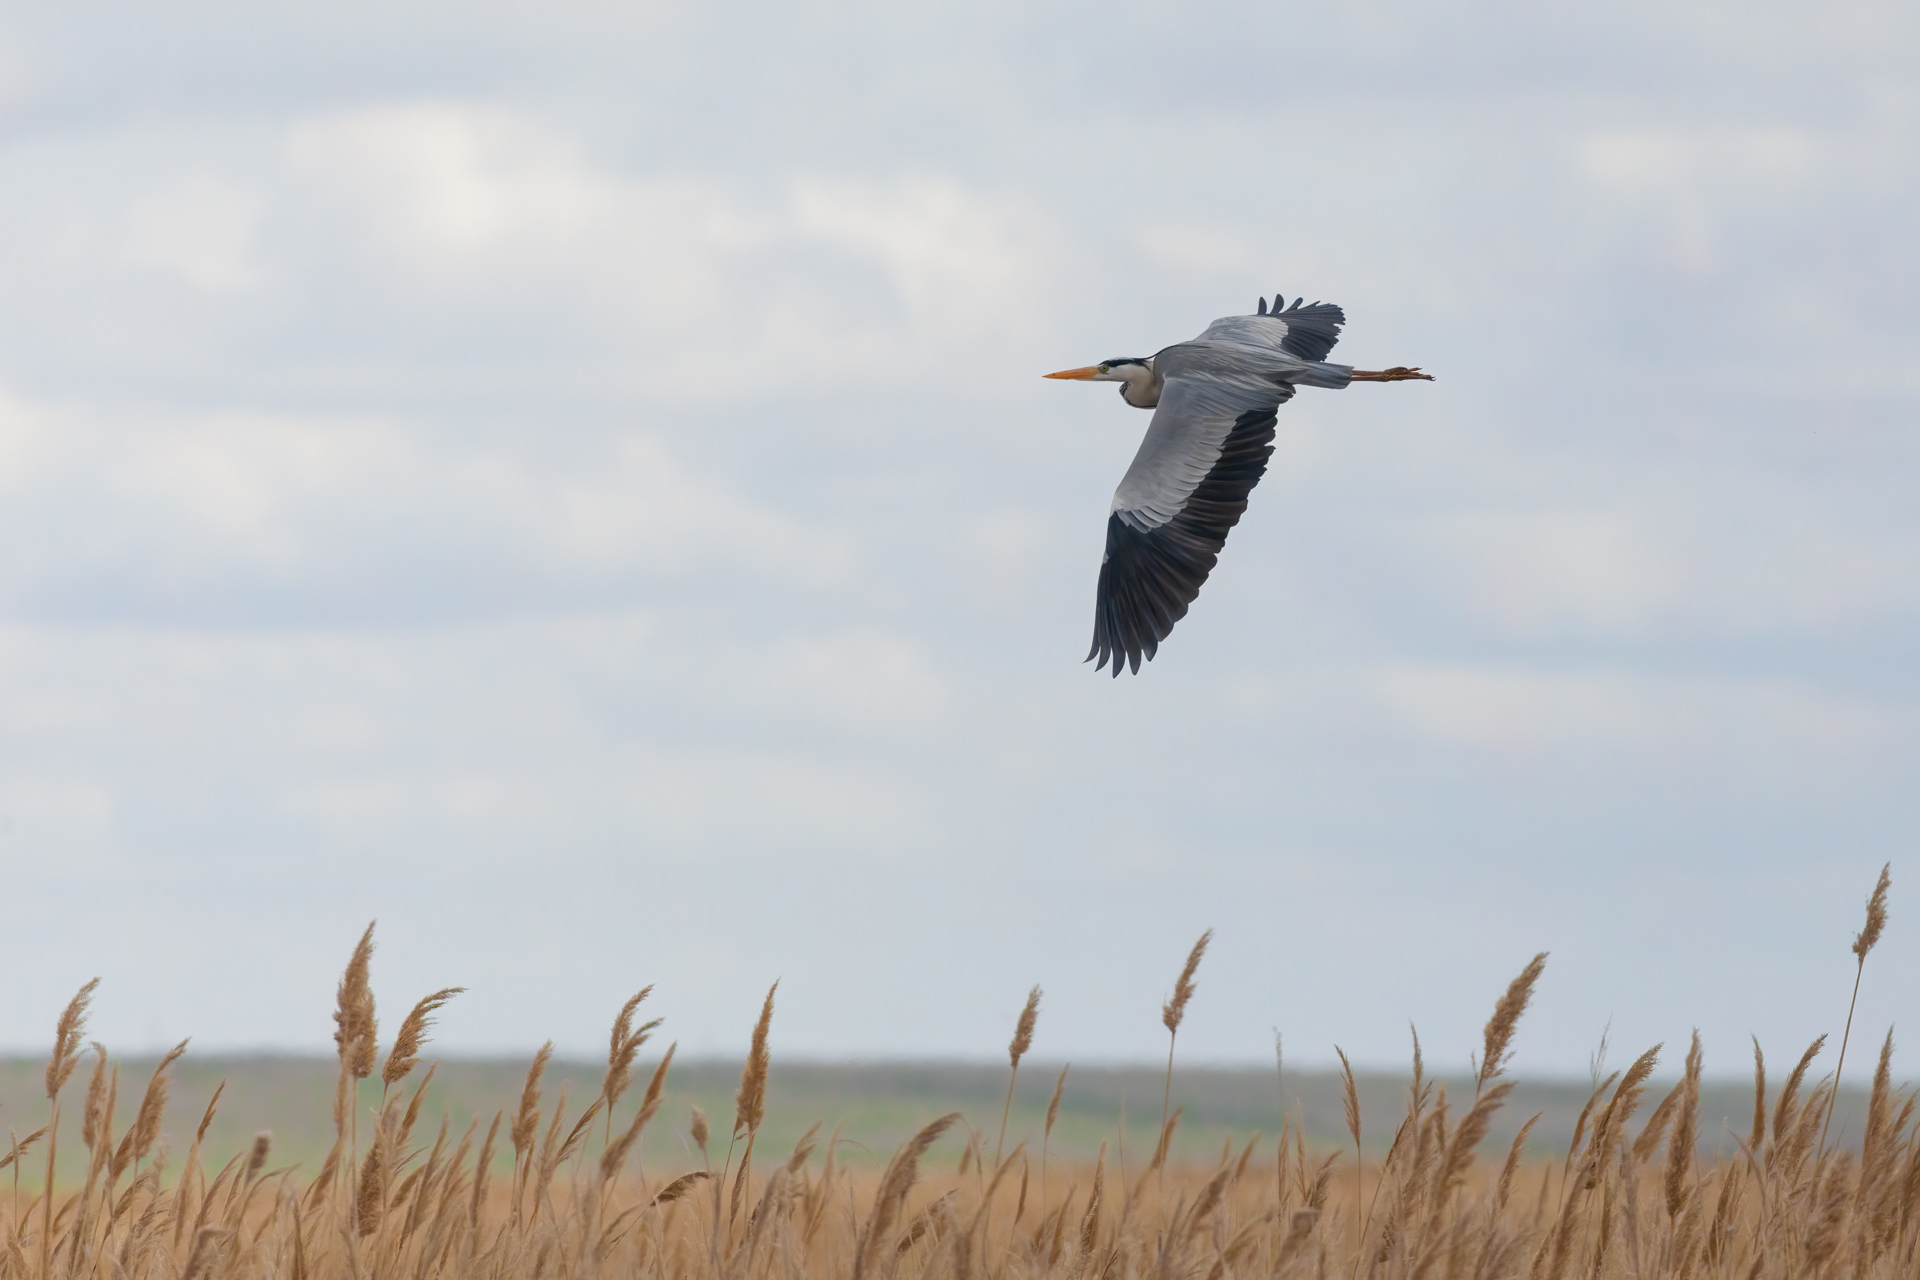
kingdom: Animalia
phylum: Chordata
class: Aves
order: Pelecaniformes
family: Ardeidae
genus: Ardea
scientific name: Ardea cinerea
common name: Grey heron
